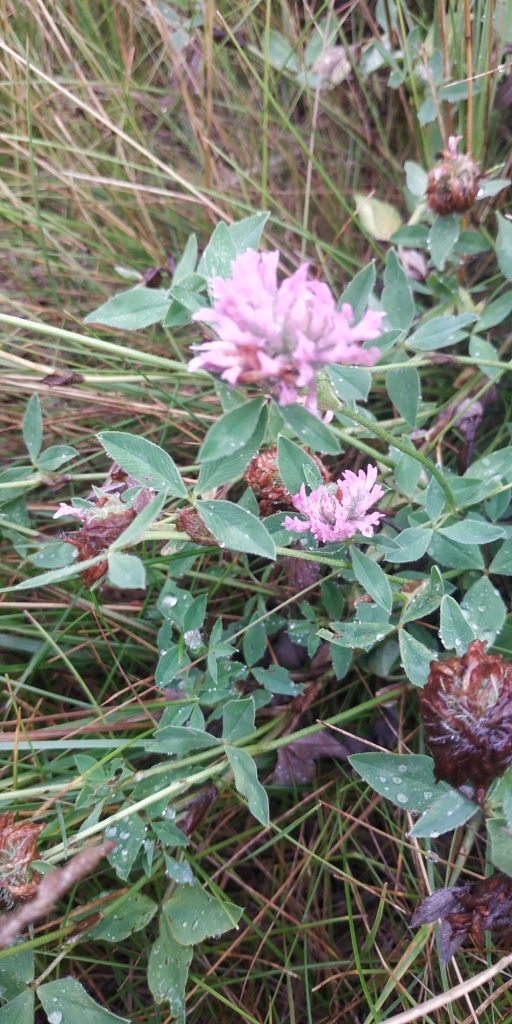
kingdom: Plantae
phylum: Tracheophyta
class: Magnoliopsida
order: Fabales
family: Fabaceae
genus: Trifolium
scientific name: Trifolium pratense
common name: Red clover
